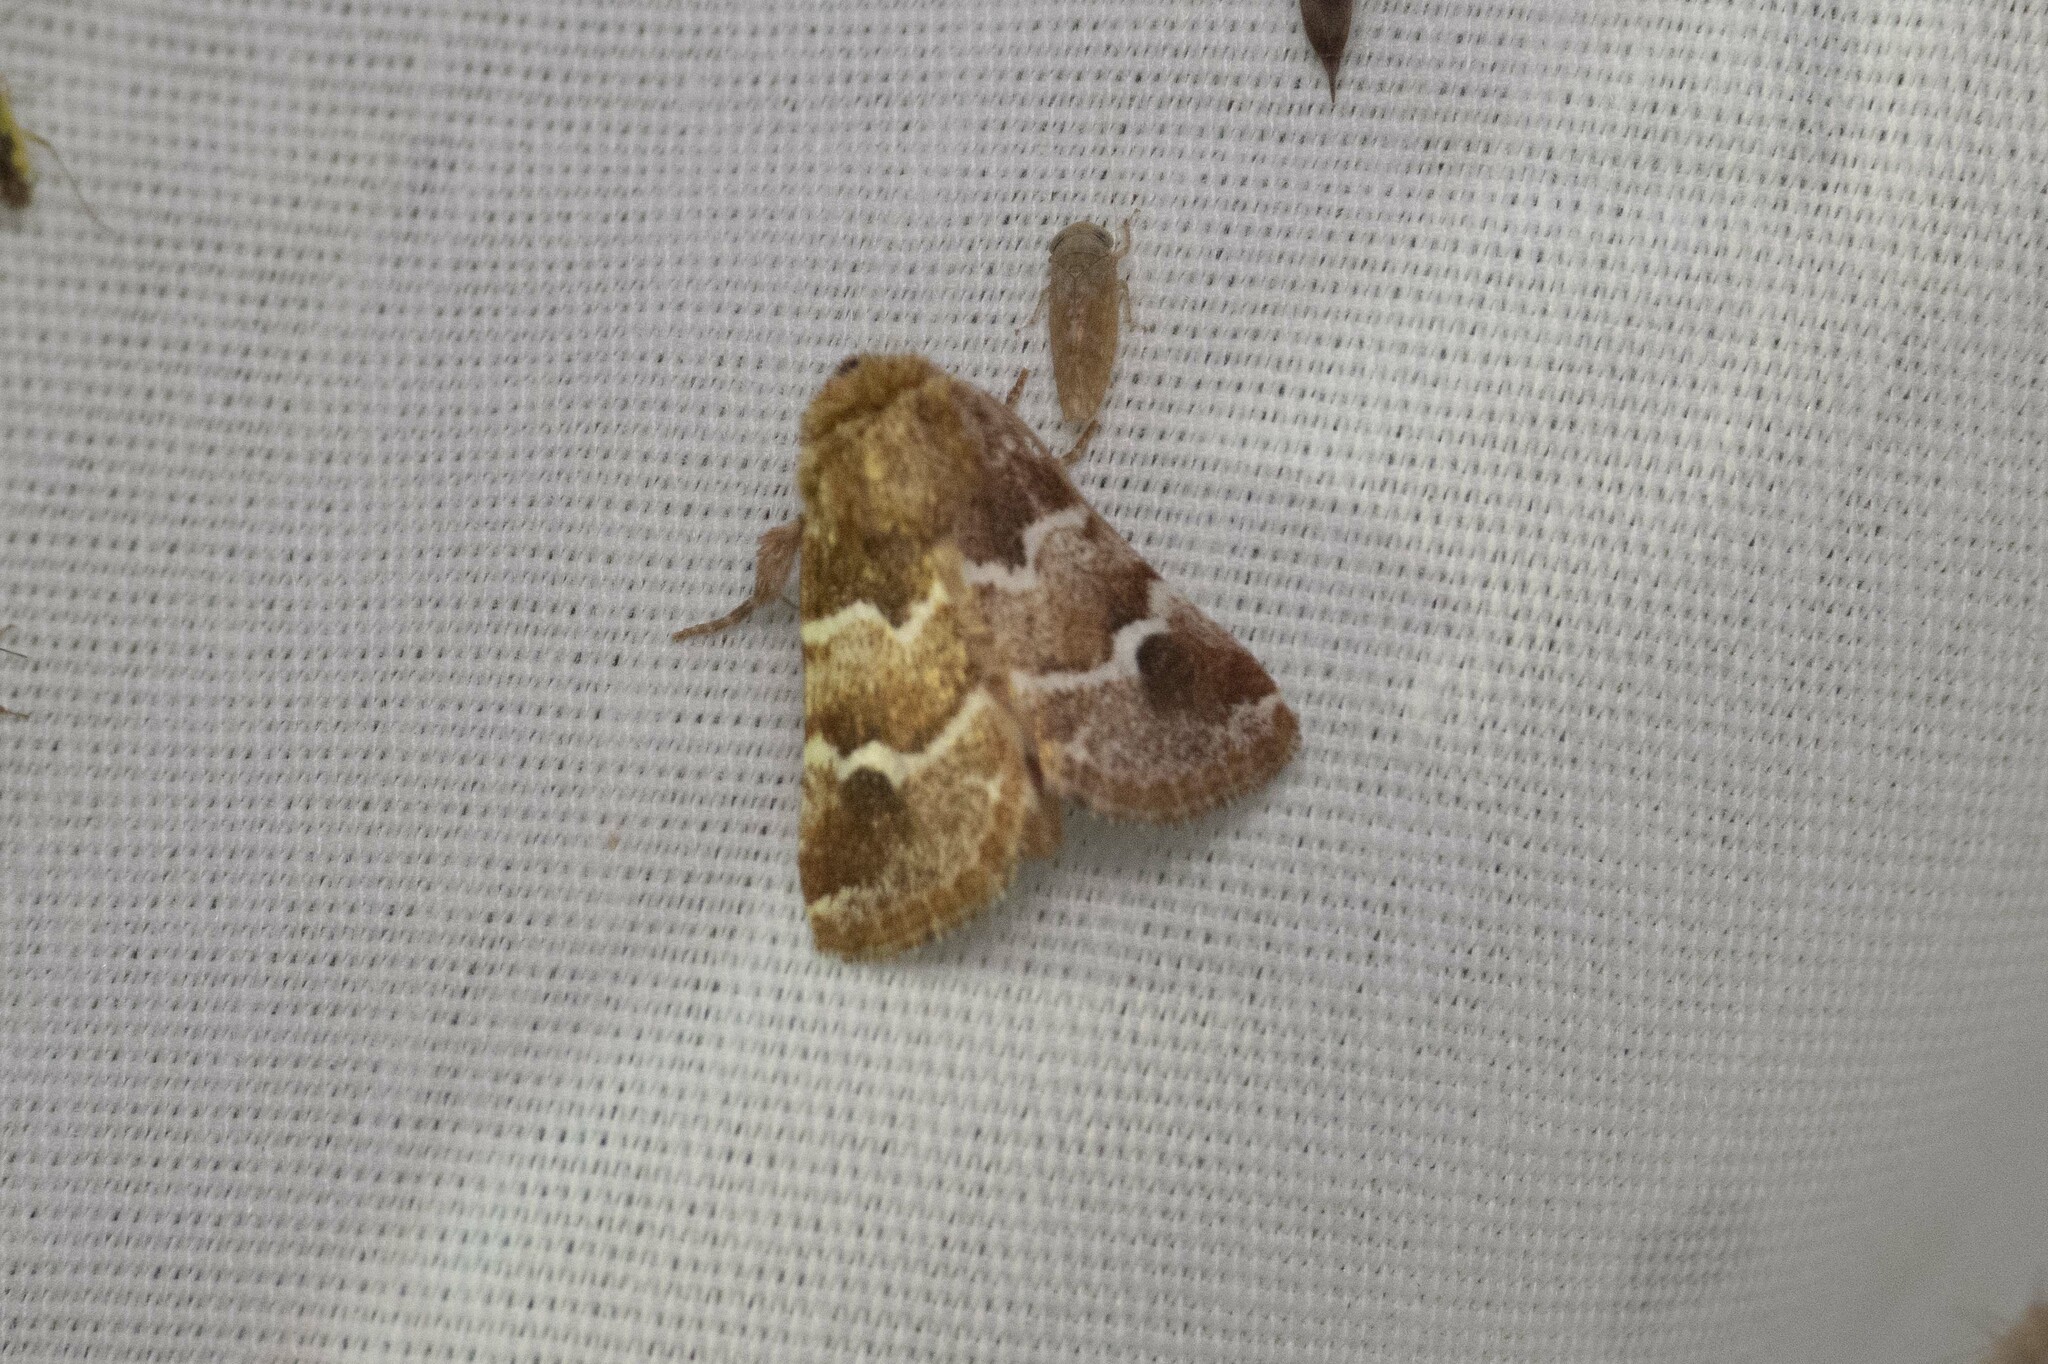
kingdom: Animalia
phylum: Arthropoda
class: Insecta
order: Lepidoptera
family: Noctuidae
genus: Nacopa
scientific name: Nacopa bistrigata
